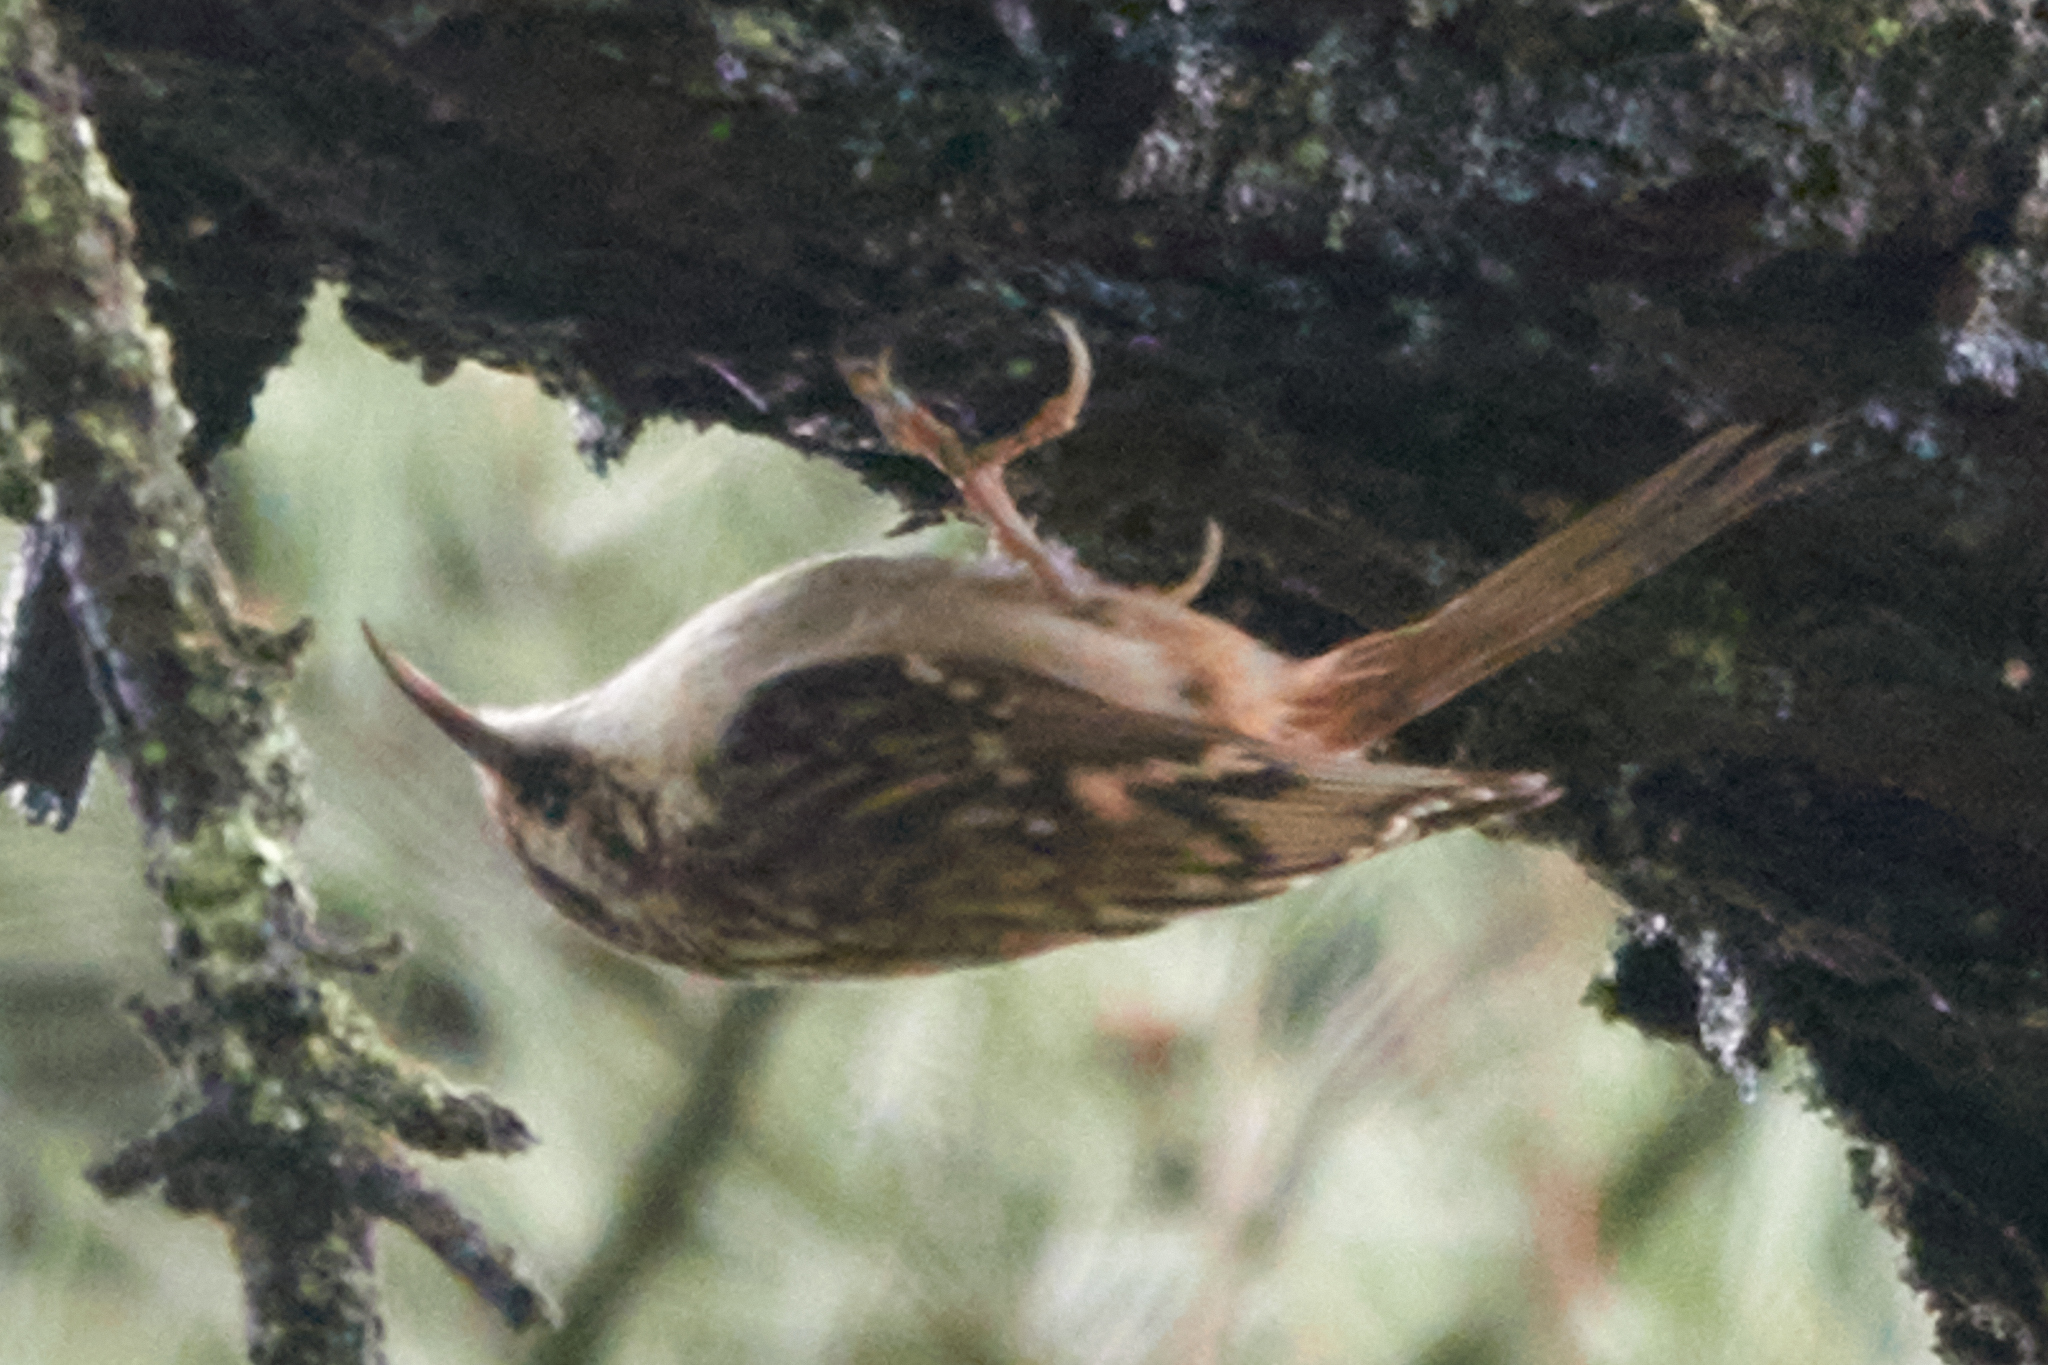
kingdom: Animalia
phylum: Chordata
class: Aves
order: Passeriformes
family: Certhiidae
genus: Certhia
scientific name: Certhia americana
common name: Brown creeper
